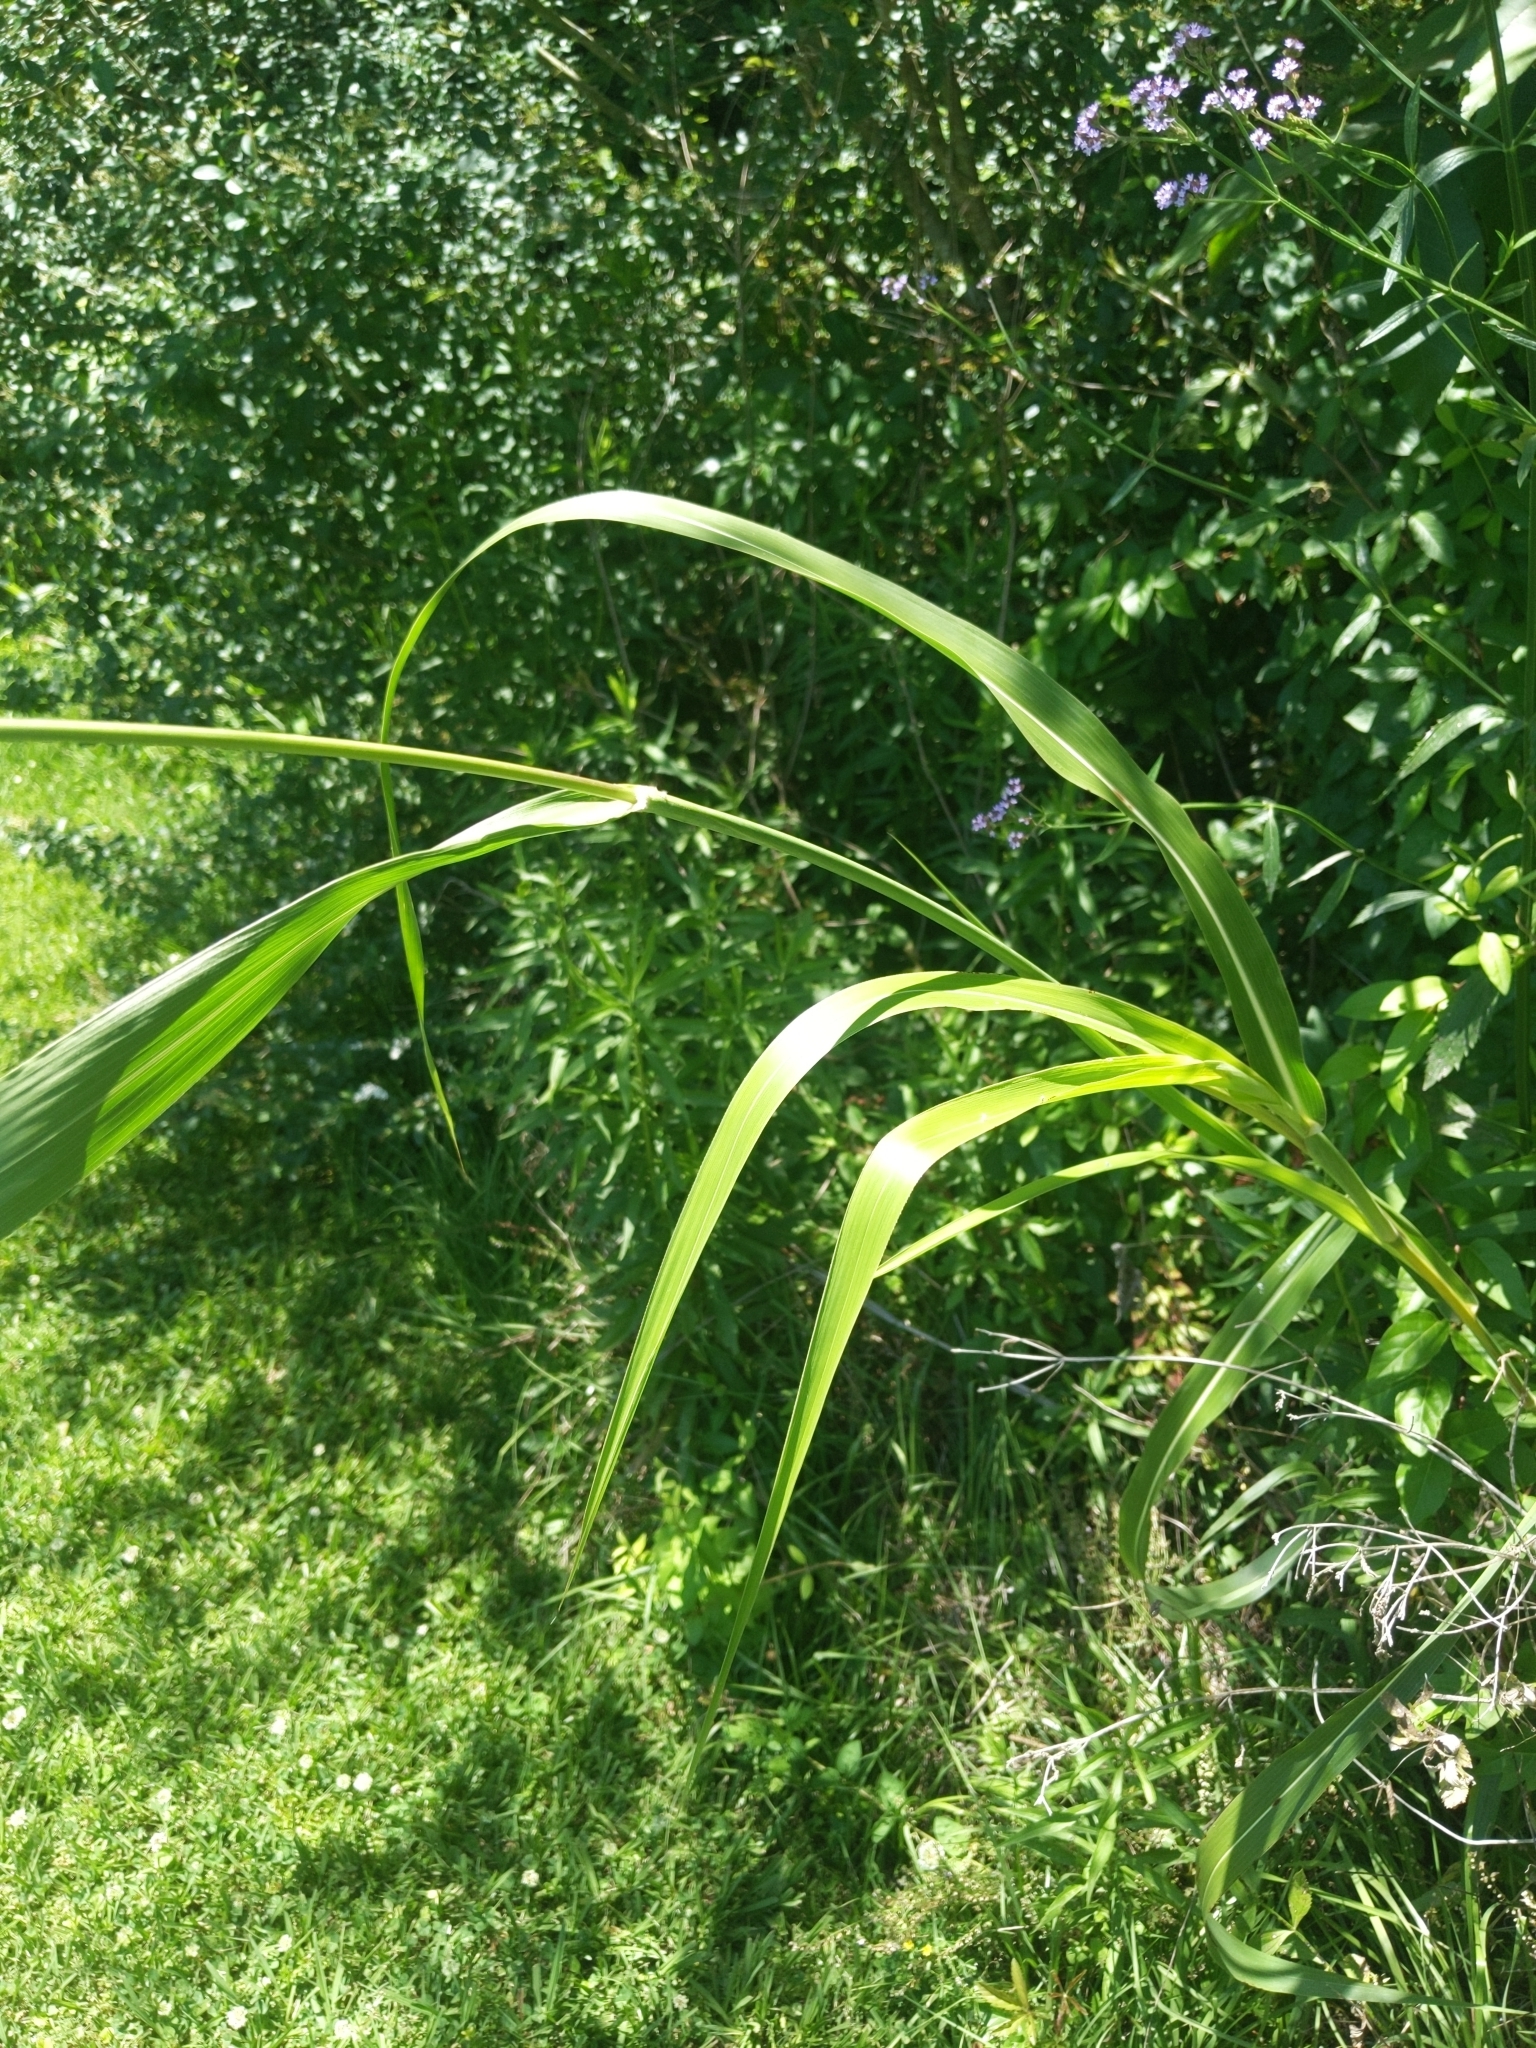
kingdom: Plantae
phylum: Tracheophyta
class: Liliopsida
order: Poales
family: Poaceae
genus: Sorghum
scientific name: Sorghum halepense
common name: Johnson-grass
